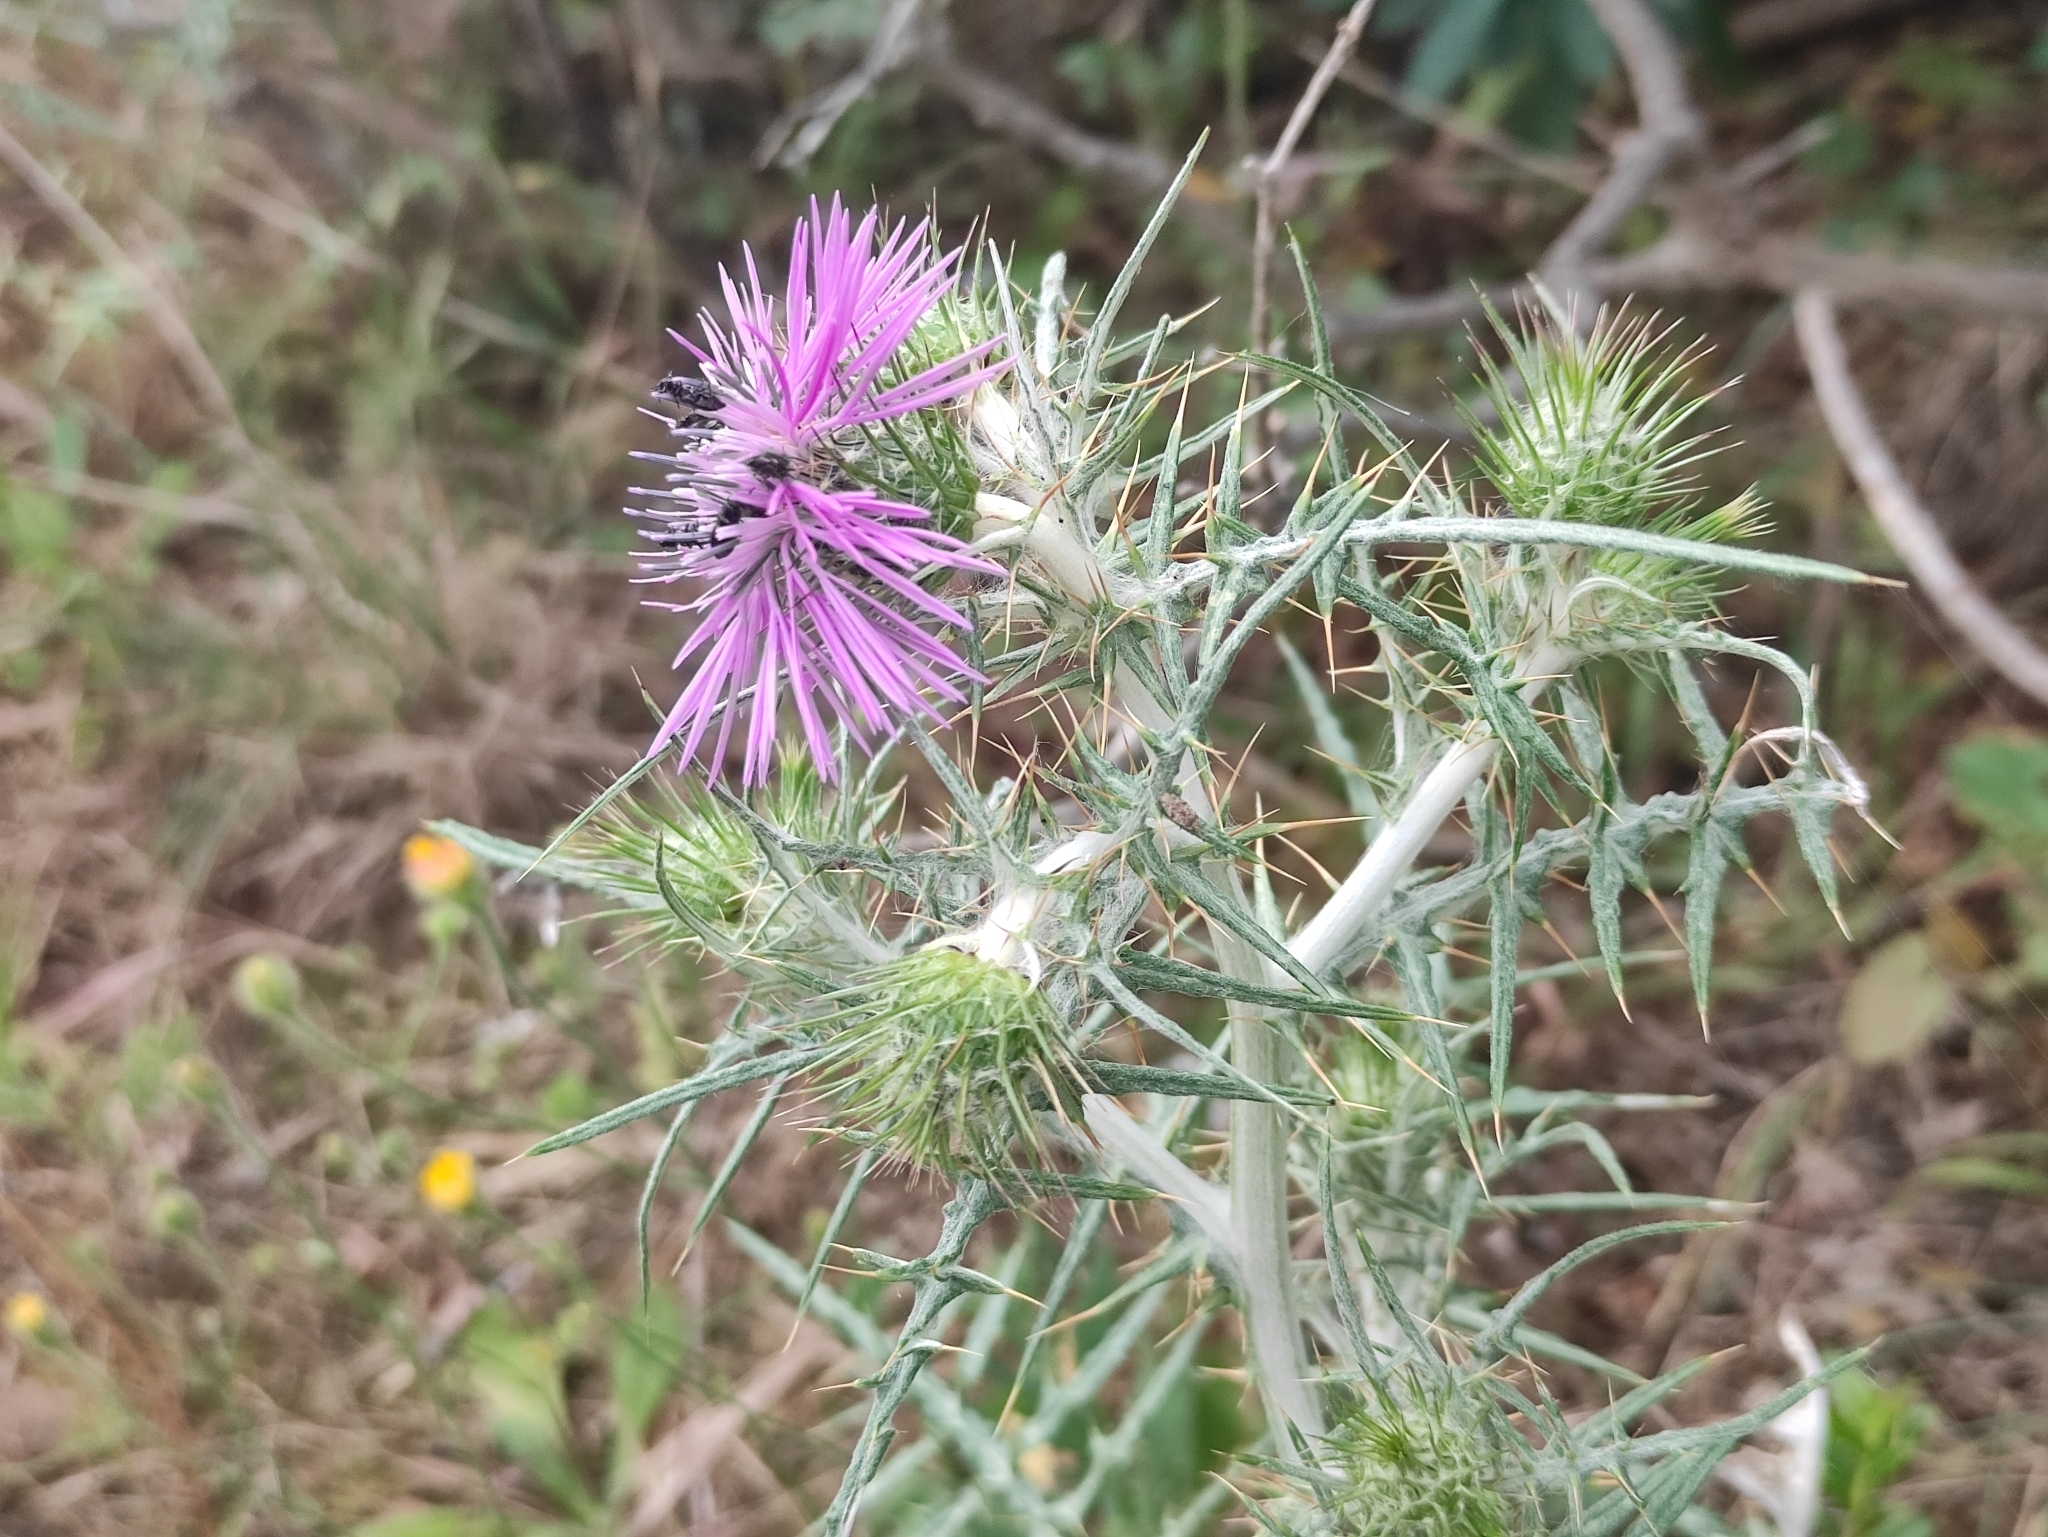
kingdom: Plantae
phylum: Tracheophyta
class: Magnoliopsida
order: Asterales
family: Asteraceae
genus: Galactites
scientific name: Galactites tomentosa
